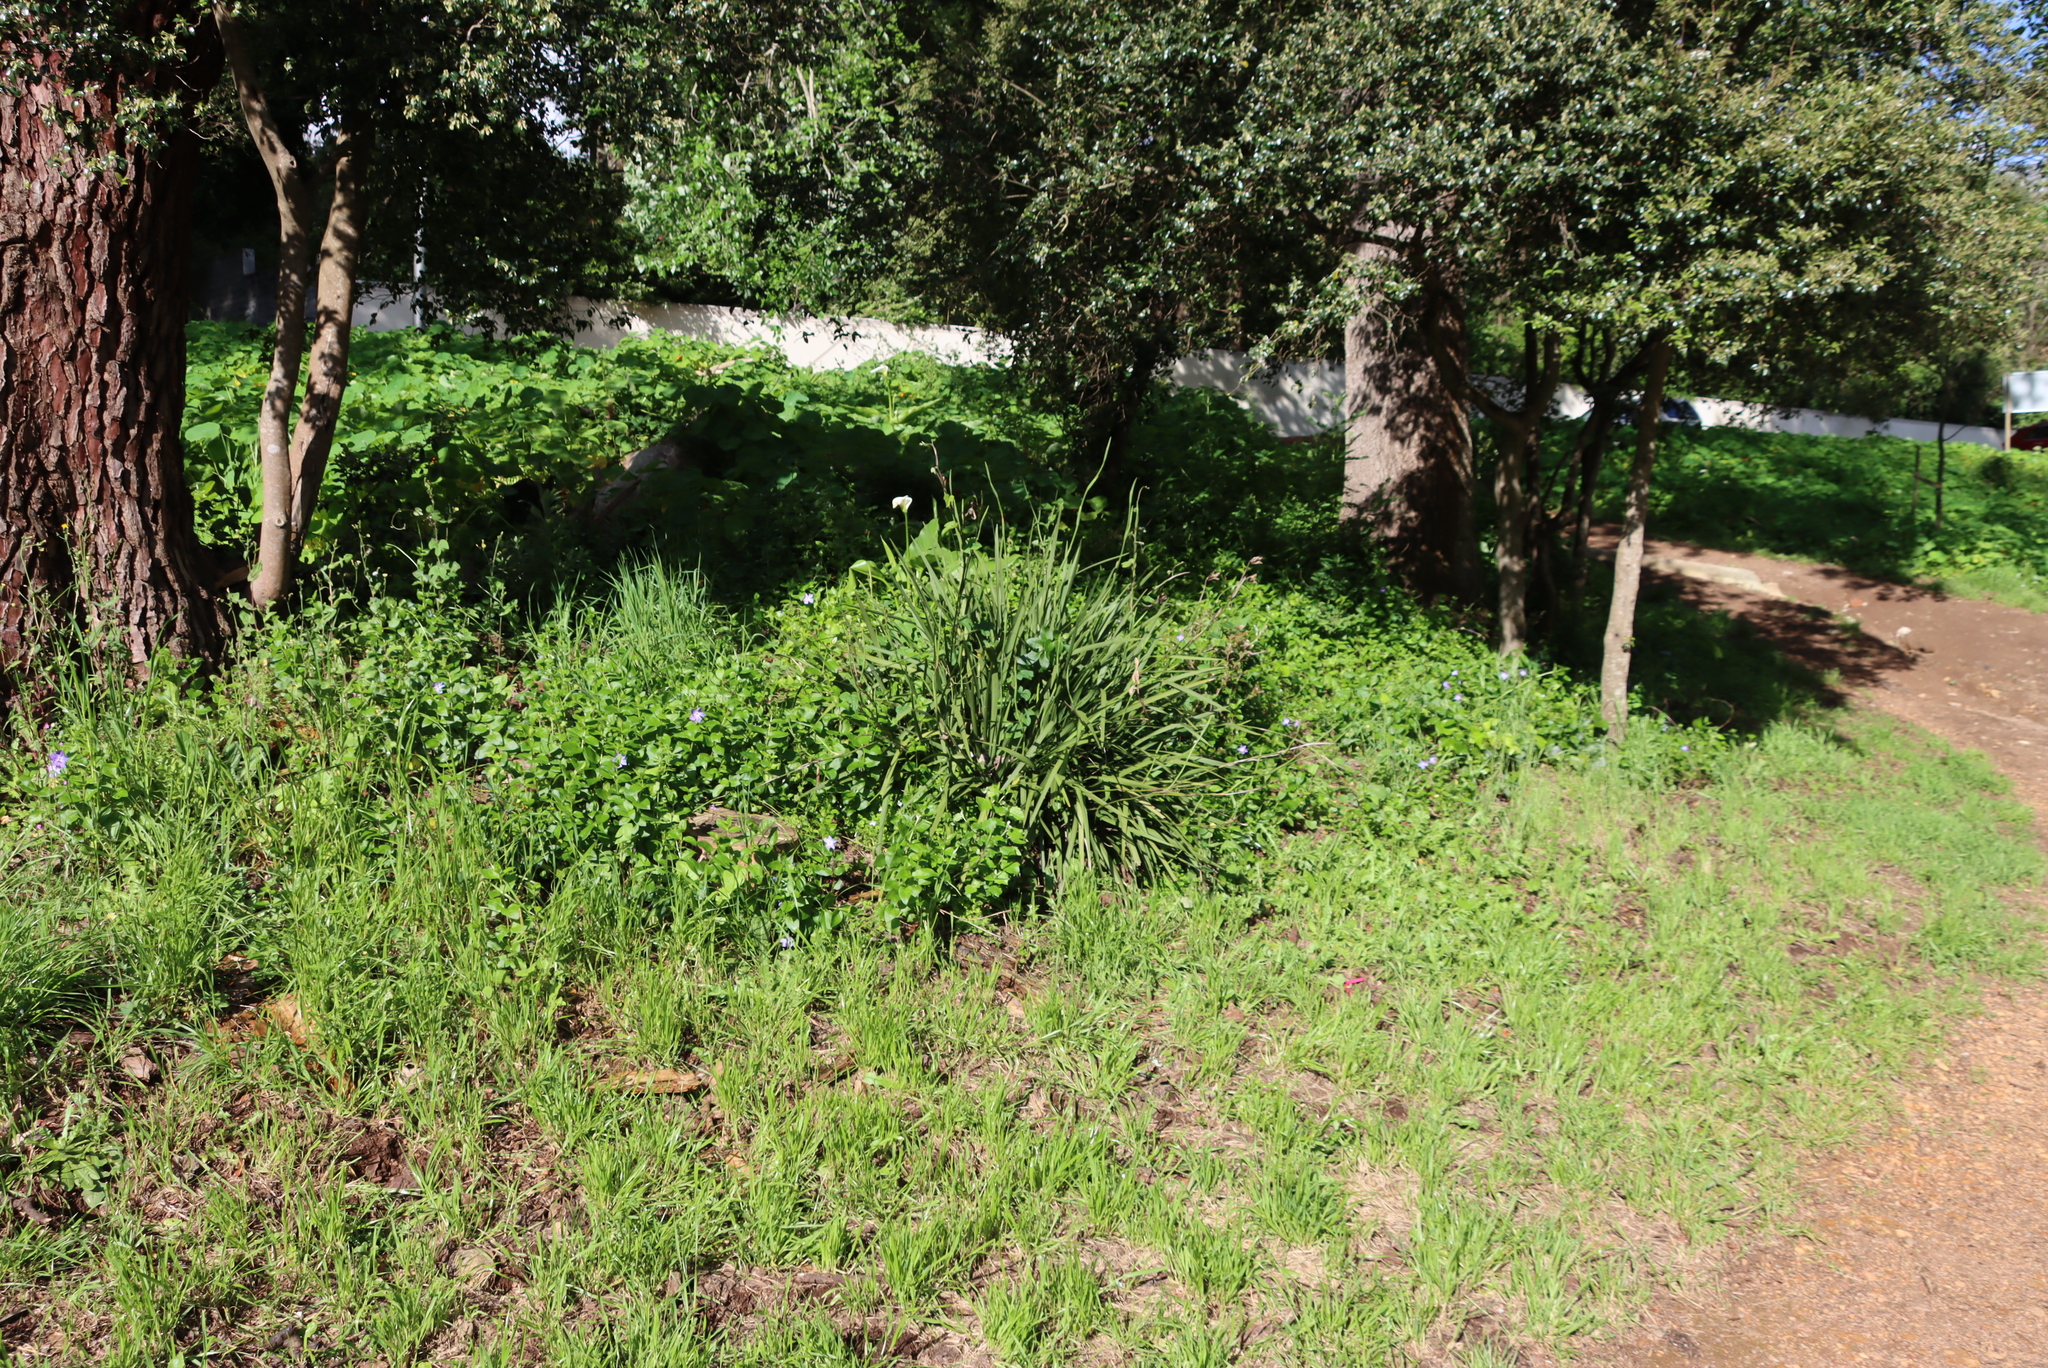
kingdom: Plantae
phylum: Tracheophyta
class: Magnoliopsida
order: Gentianales
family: Apocynaceae
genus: Vinca
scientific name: Vinca major
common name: Greater periwinkle
